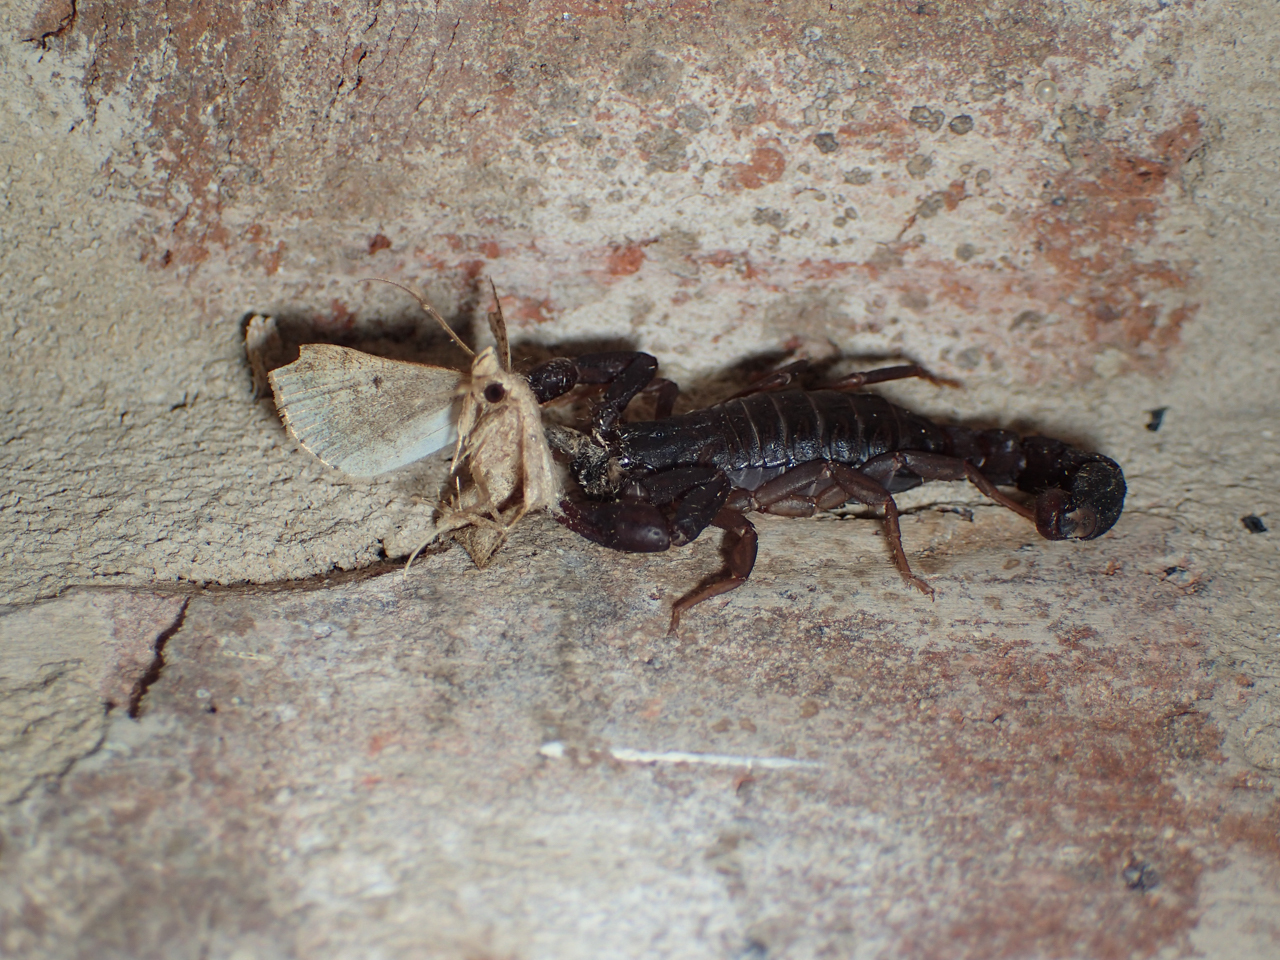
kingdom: Animalia
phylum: Arthropoda
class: Arachnida
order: Scorpiones
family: Vaejovidae
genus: Vaejovis
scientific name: Vaejovis carolinianus
